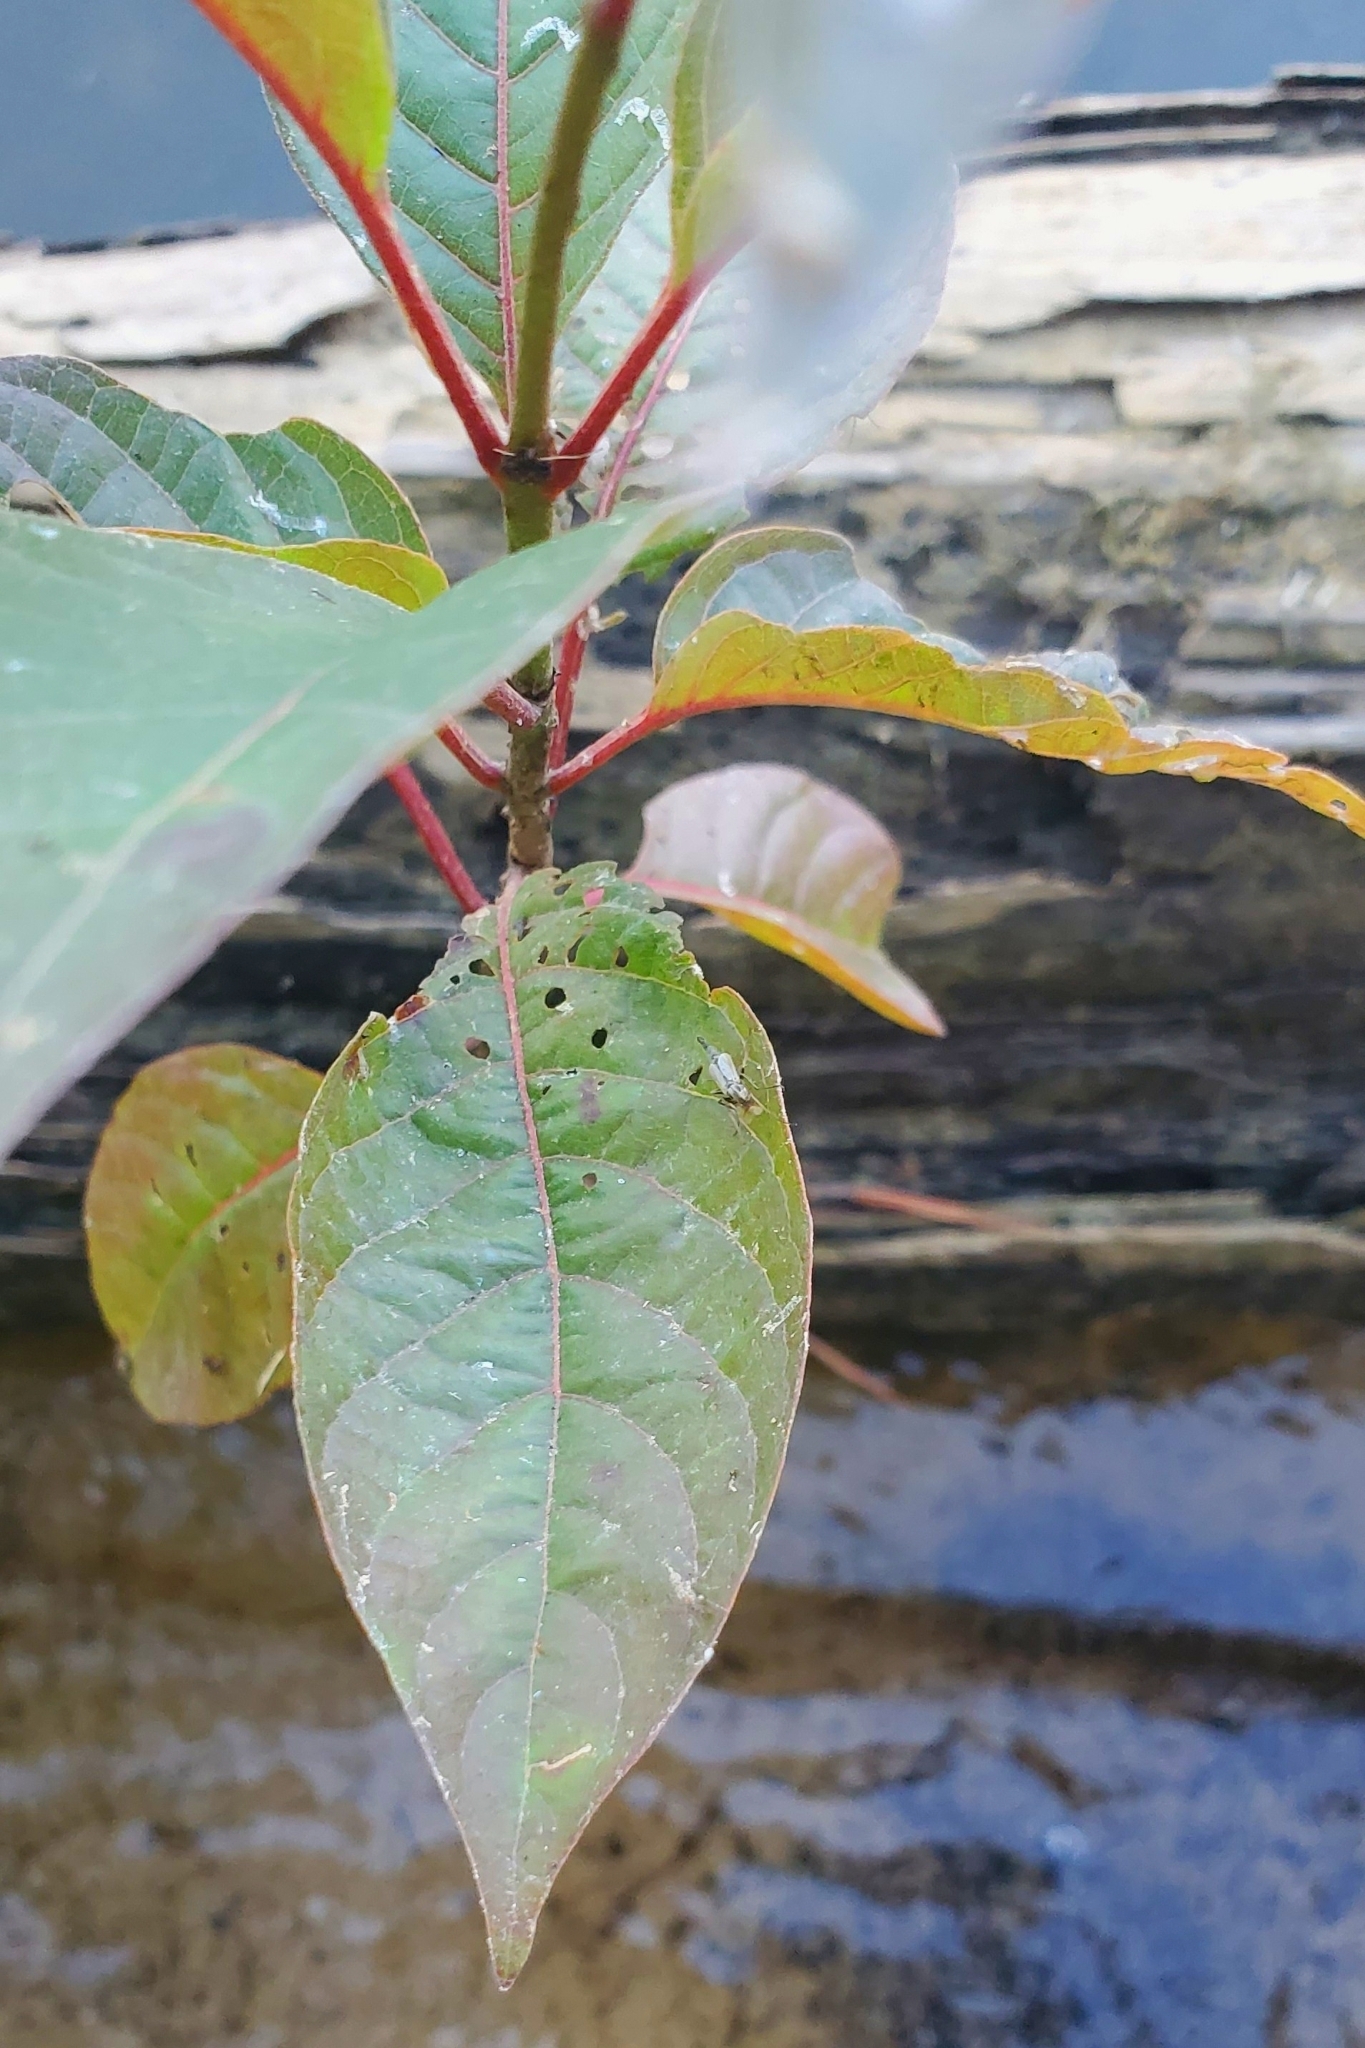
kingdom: Plantae
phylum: Tracheophyta
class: Magnoliopsida
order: Gentianales
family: Rubiaceae
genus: Cephalanthus
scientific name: Cephalanthus occidentalis
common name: Button-willow
